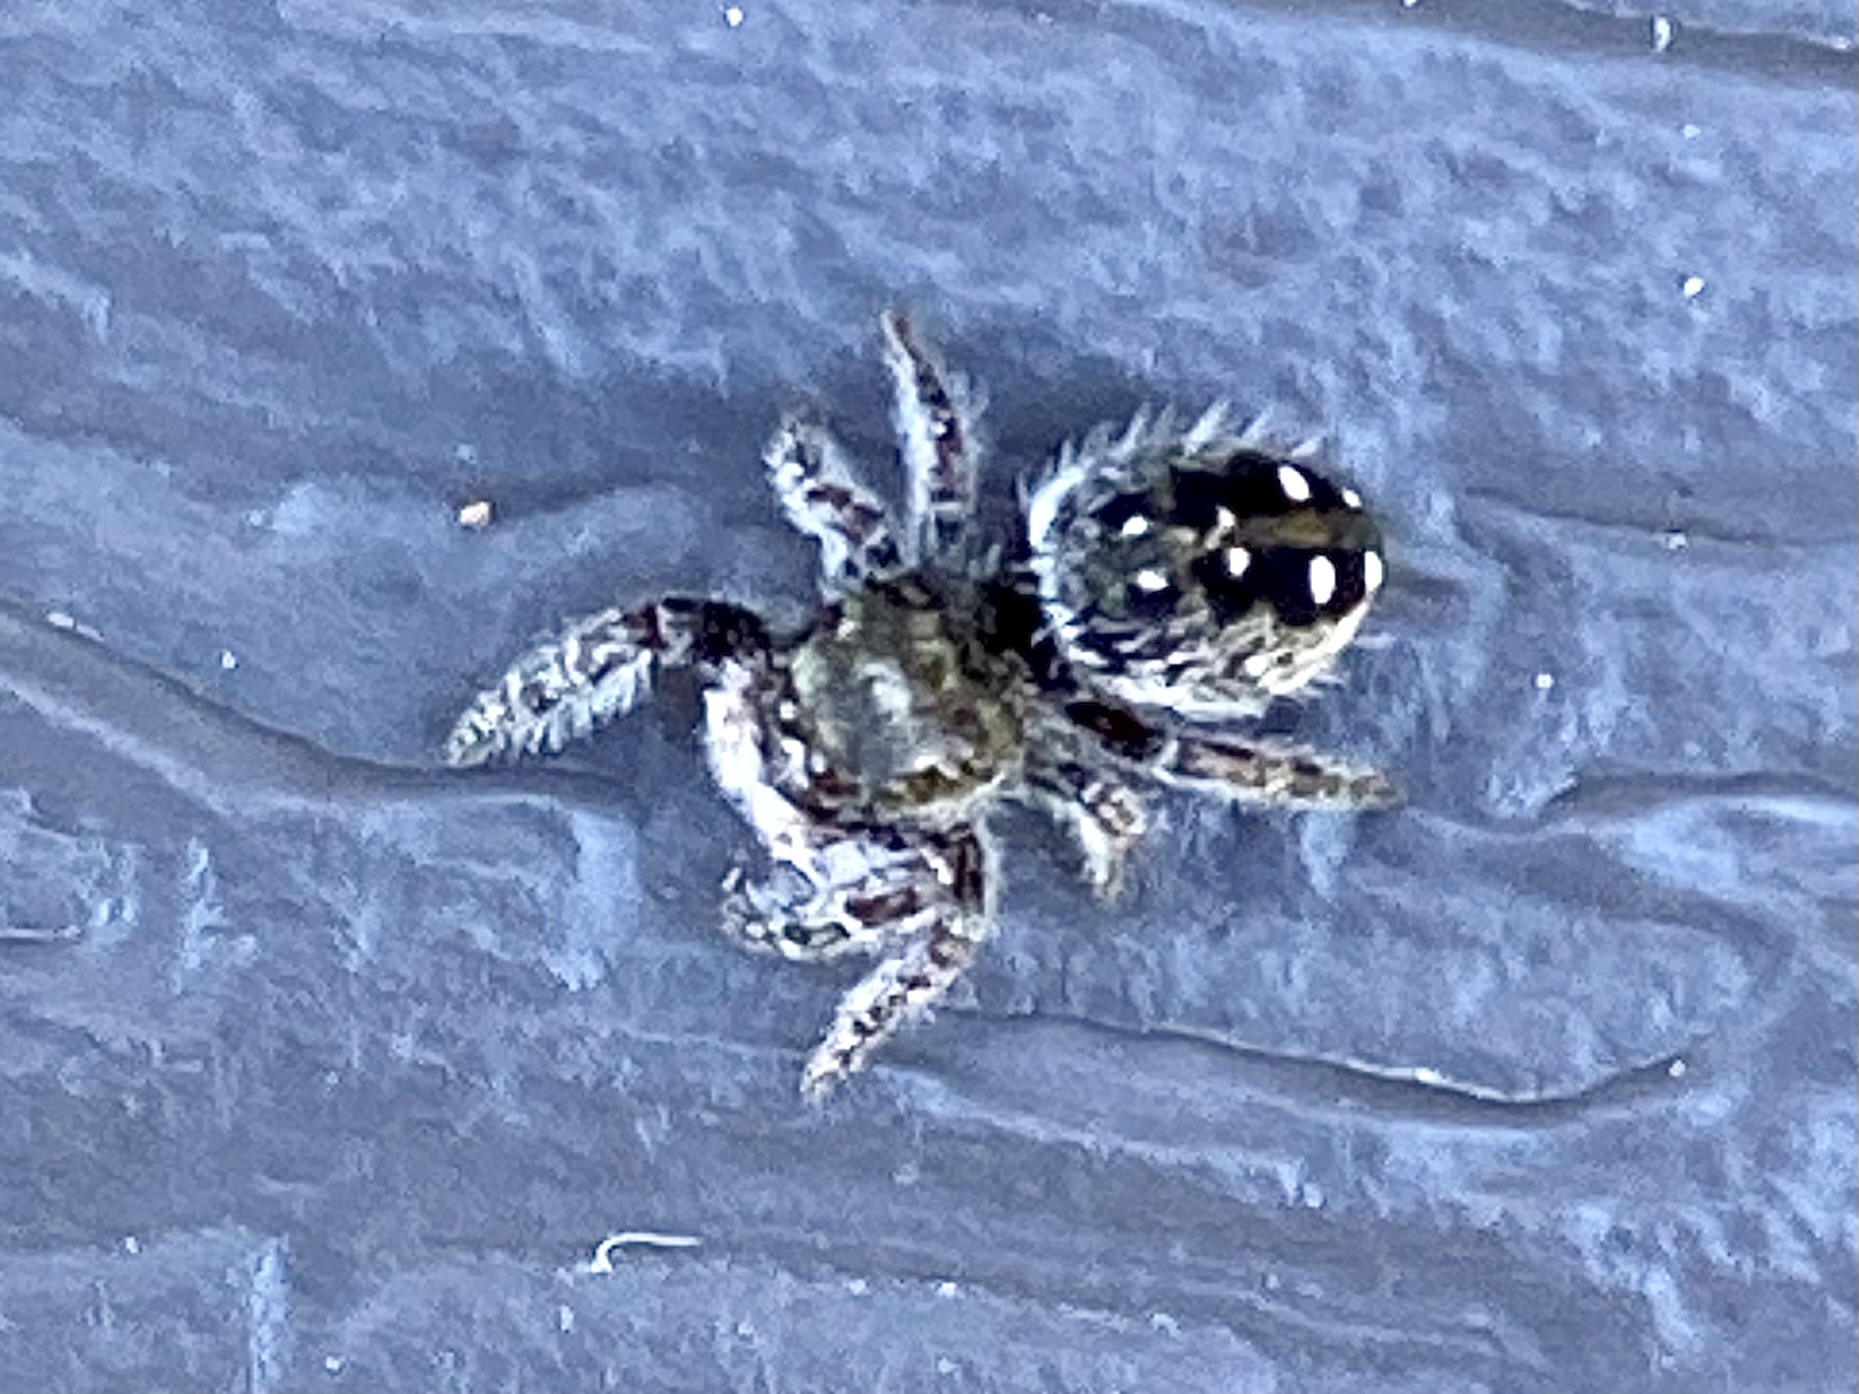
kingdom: Animalia
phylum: Arthropoda
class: Arachnida
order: Araneae
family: Salticidae
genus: Phidippus
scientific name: Phidippus purpuratus
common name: Marbled purple jumping spider
